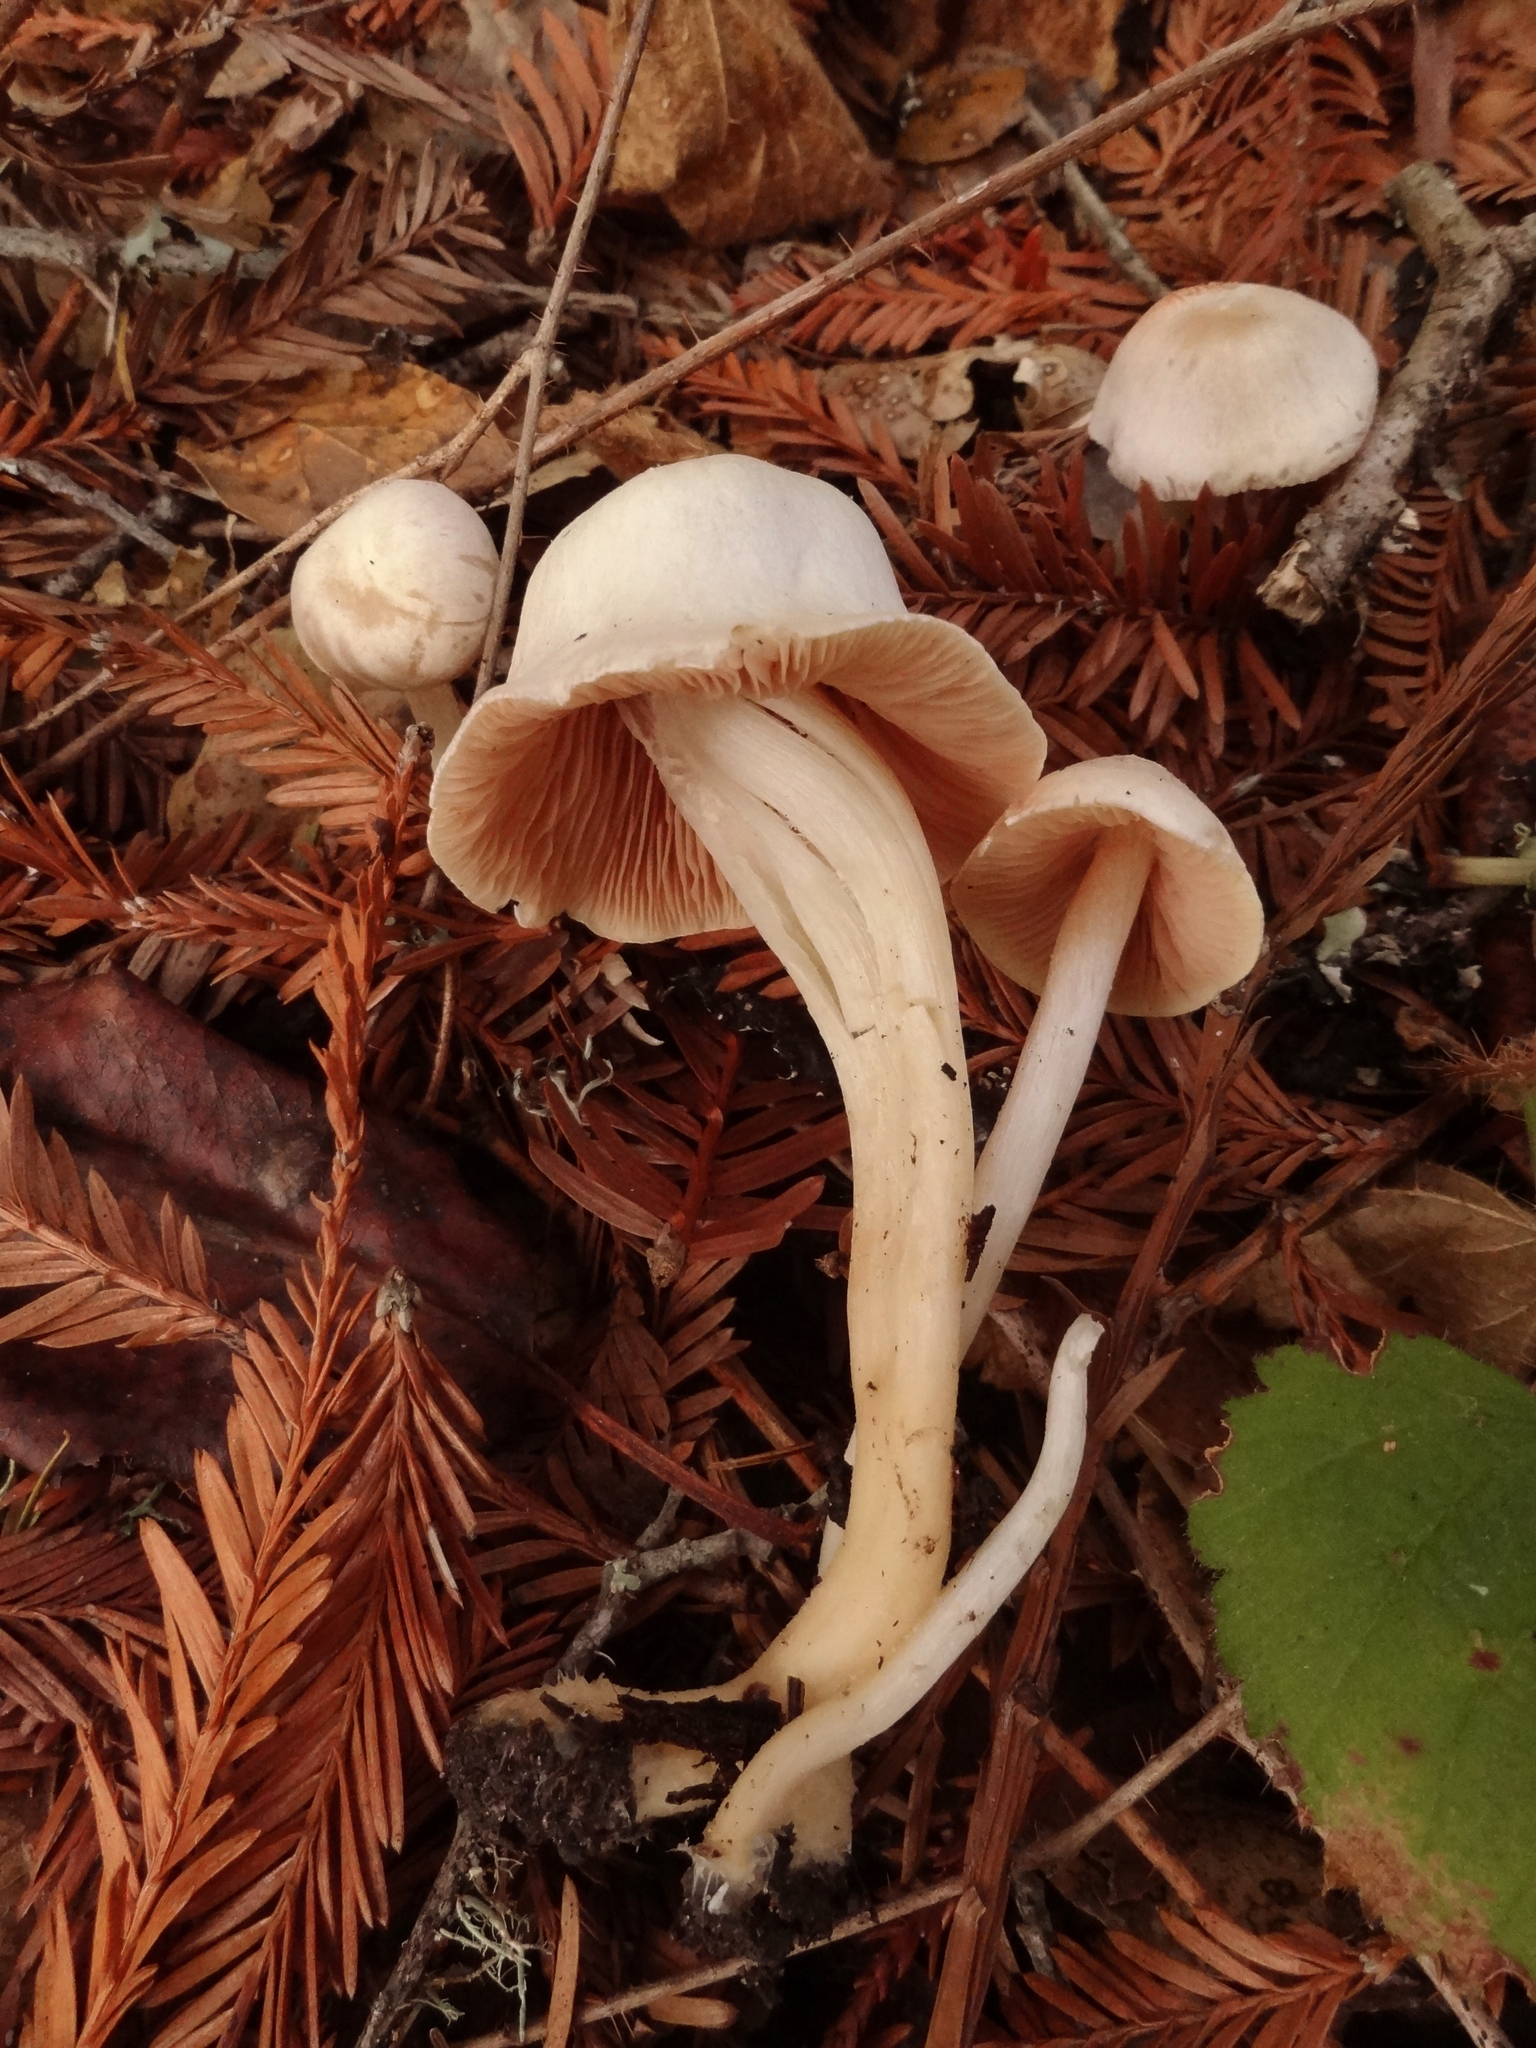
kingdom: Fungi
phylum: Basidiomycota
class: Agaricomycetes
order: Agaricales
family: Entolomataceae
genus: Entoloma
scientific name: Entoloma sericellum
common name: Cream pinkgill
